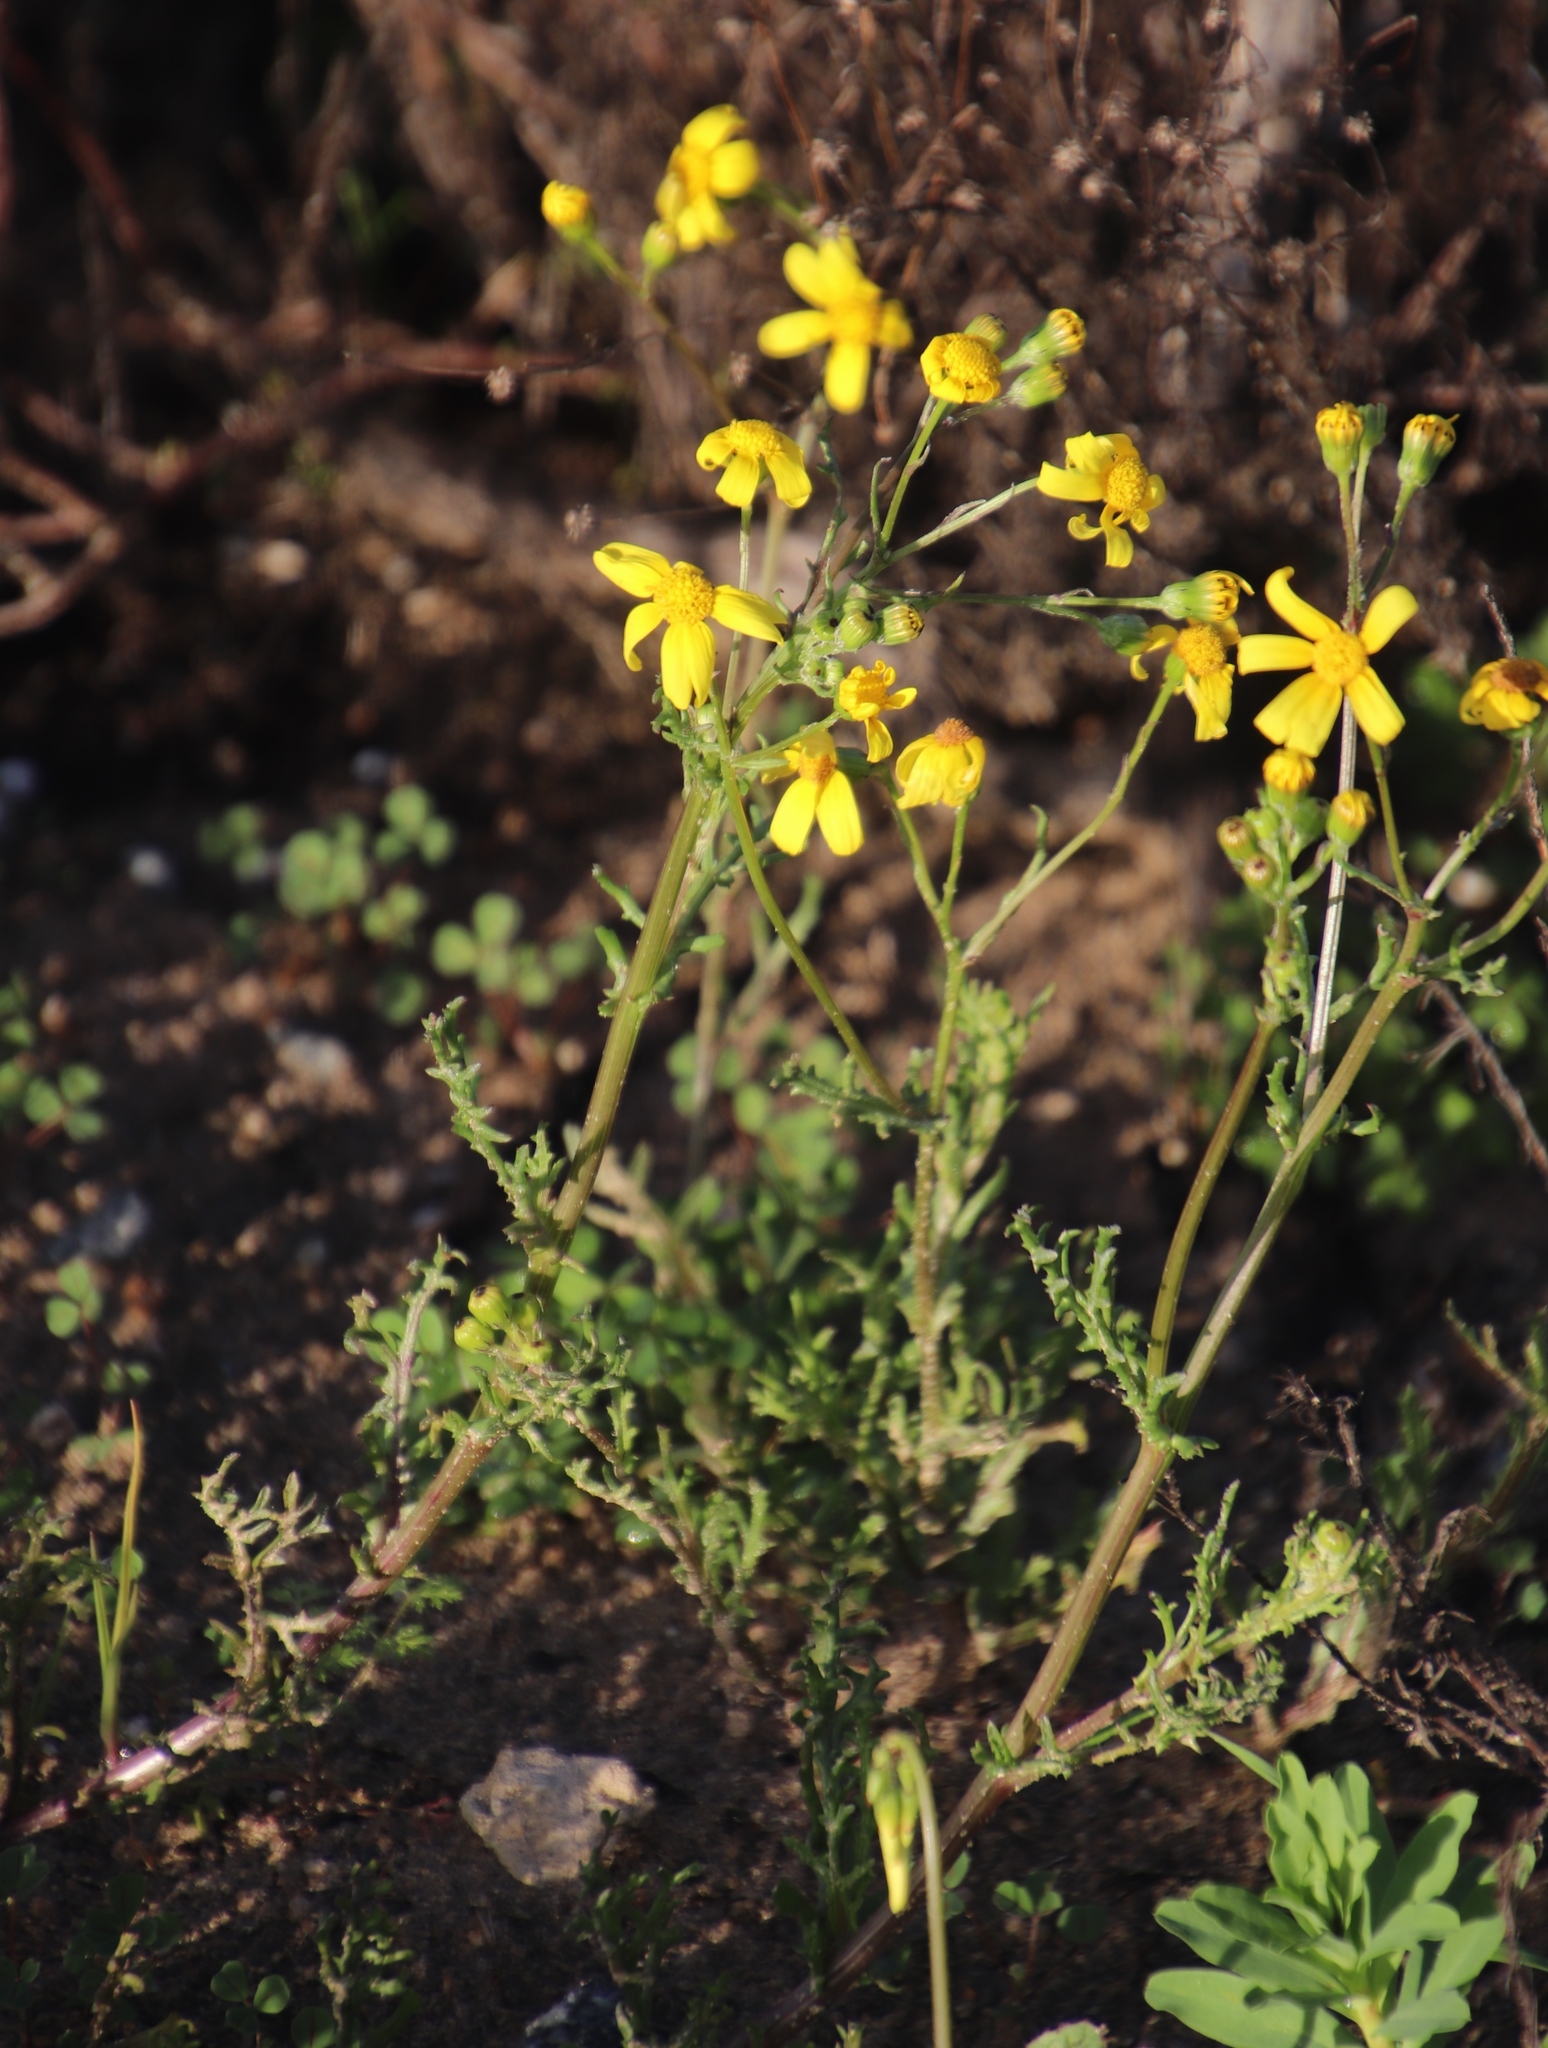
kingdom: Plantae
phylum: Tracheophyta
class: Magnoliopsida
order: Asterales
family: Asteraceae
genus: Senecio
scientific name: Senecio abruptus
